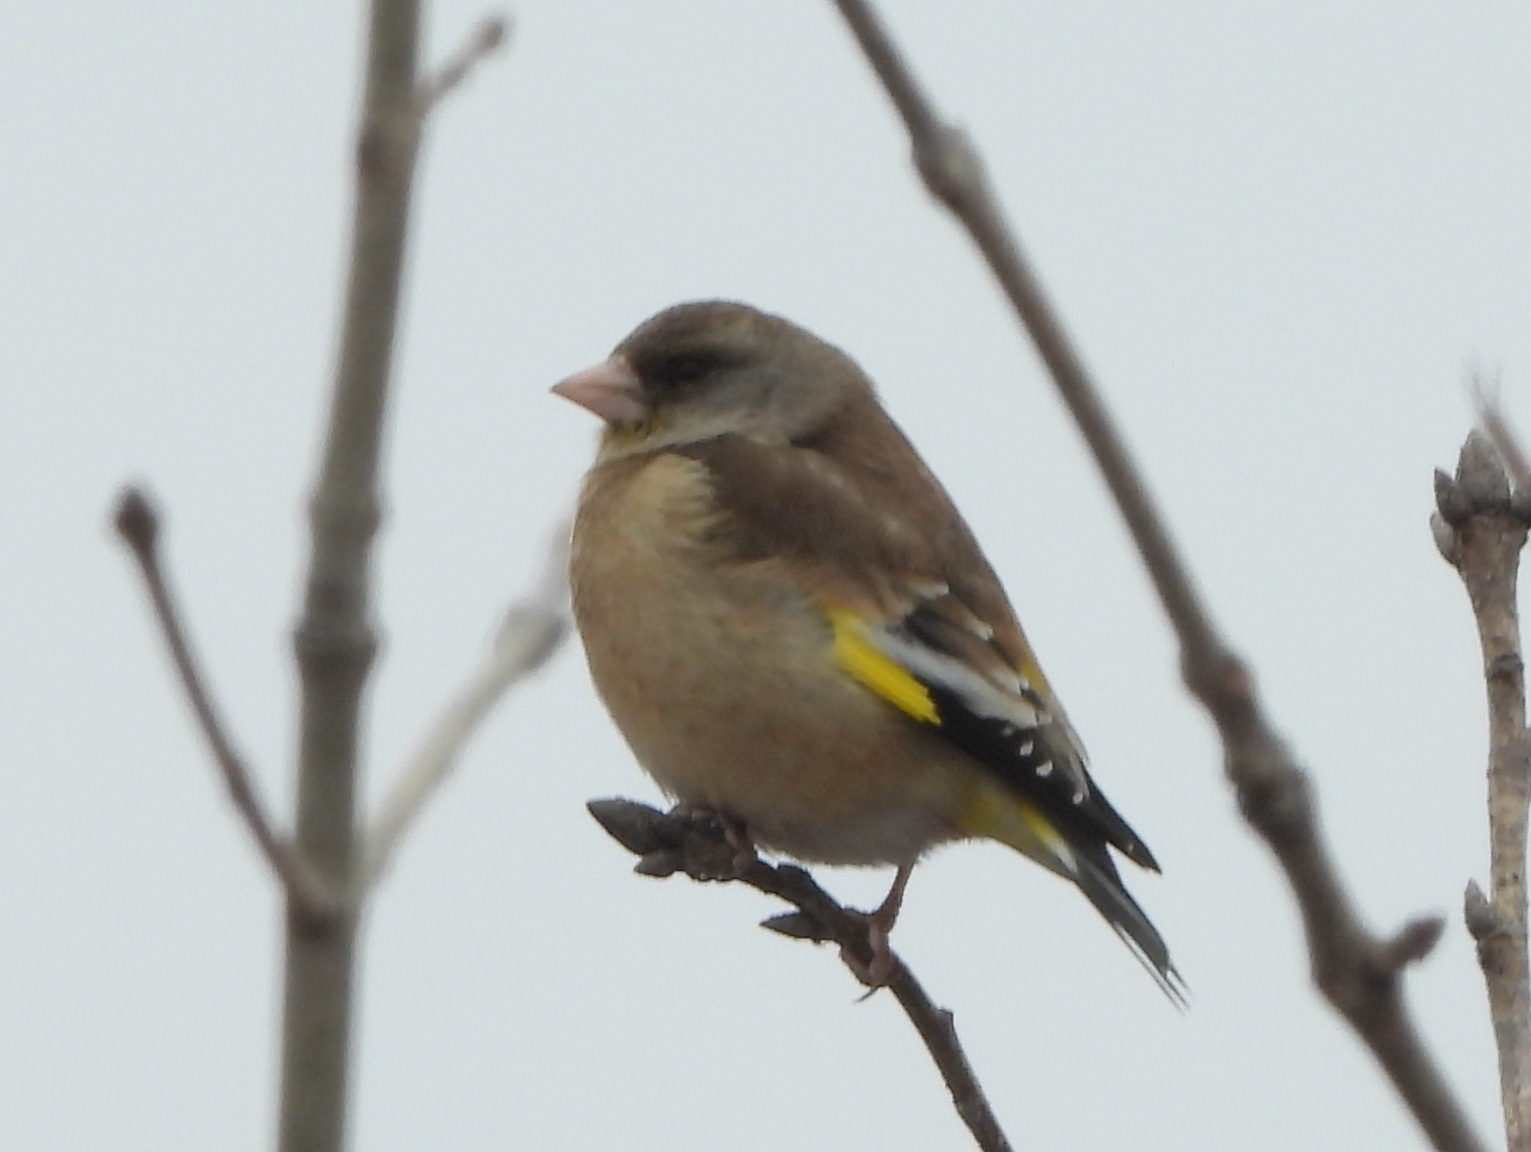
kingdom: Plantae
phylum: Tracheophyta
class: Liliopsida
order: Poales
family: Poaceae
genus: Chloris
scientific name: Chloris sinica
